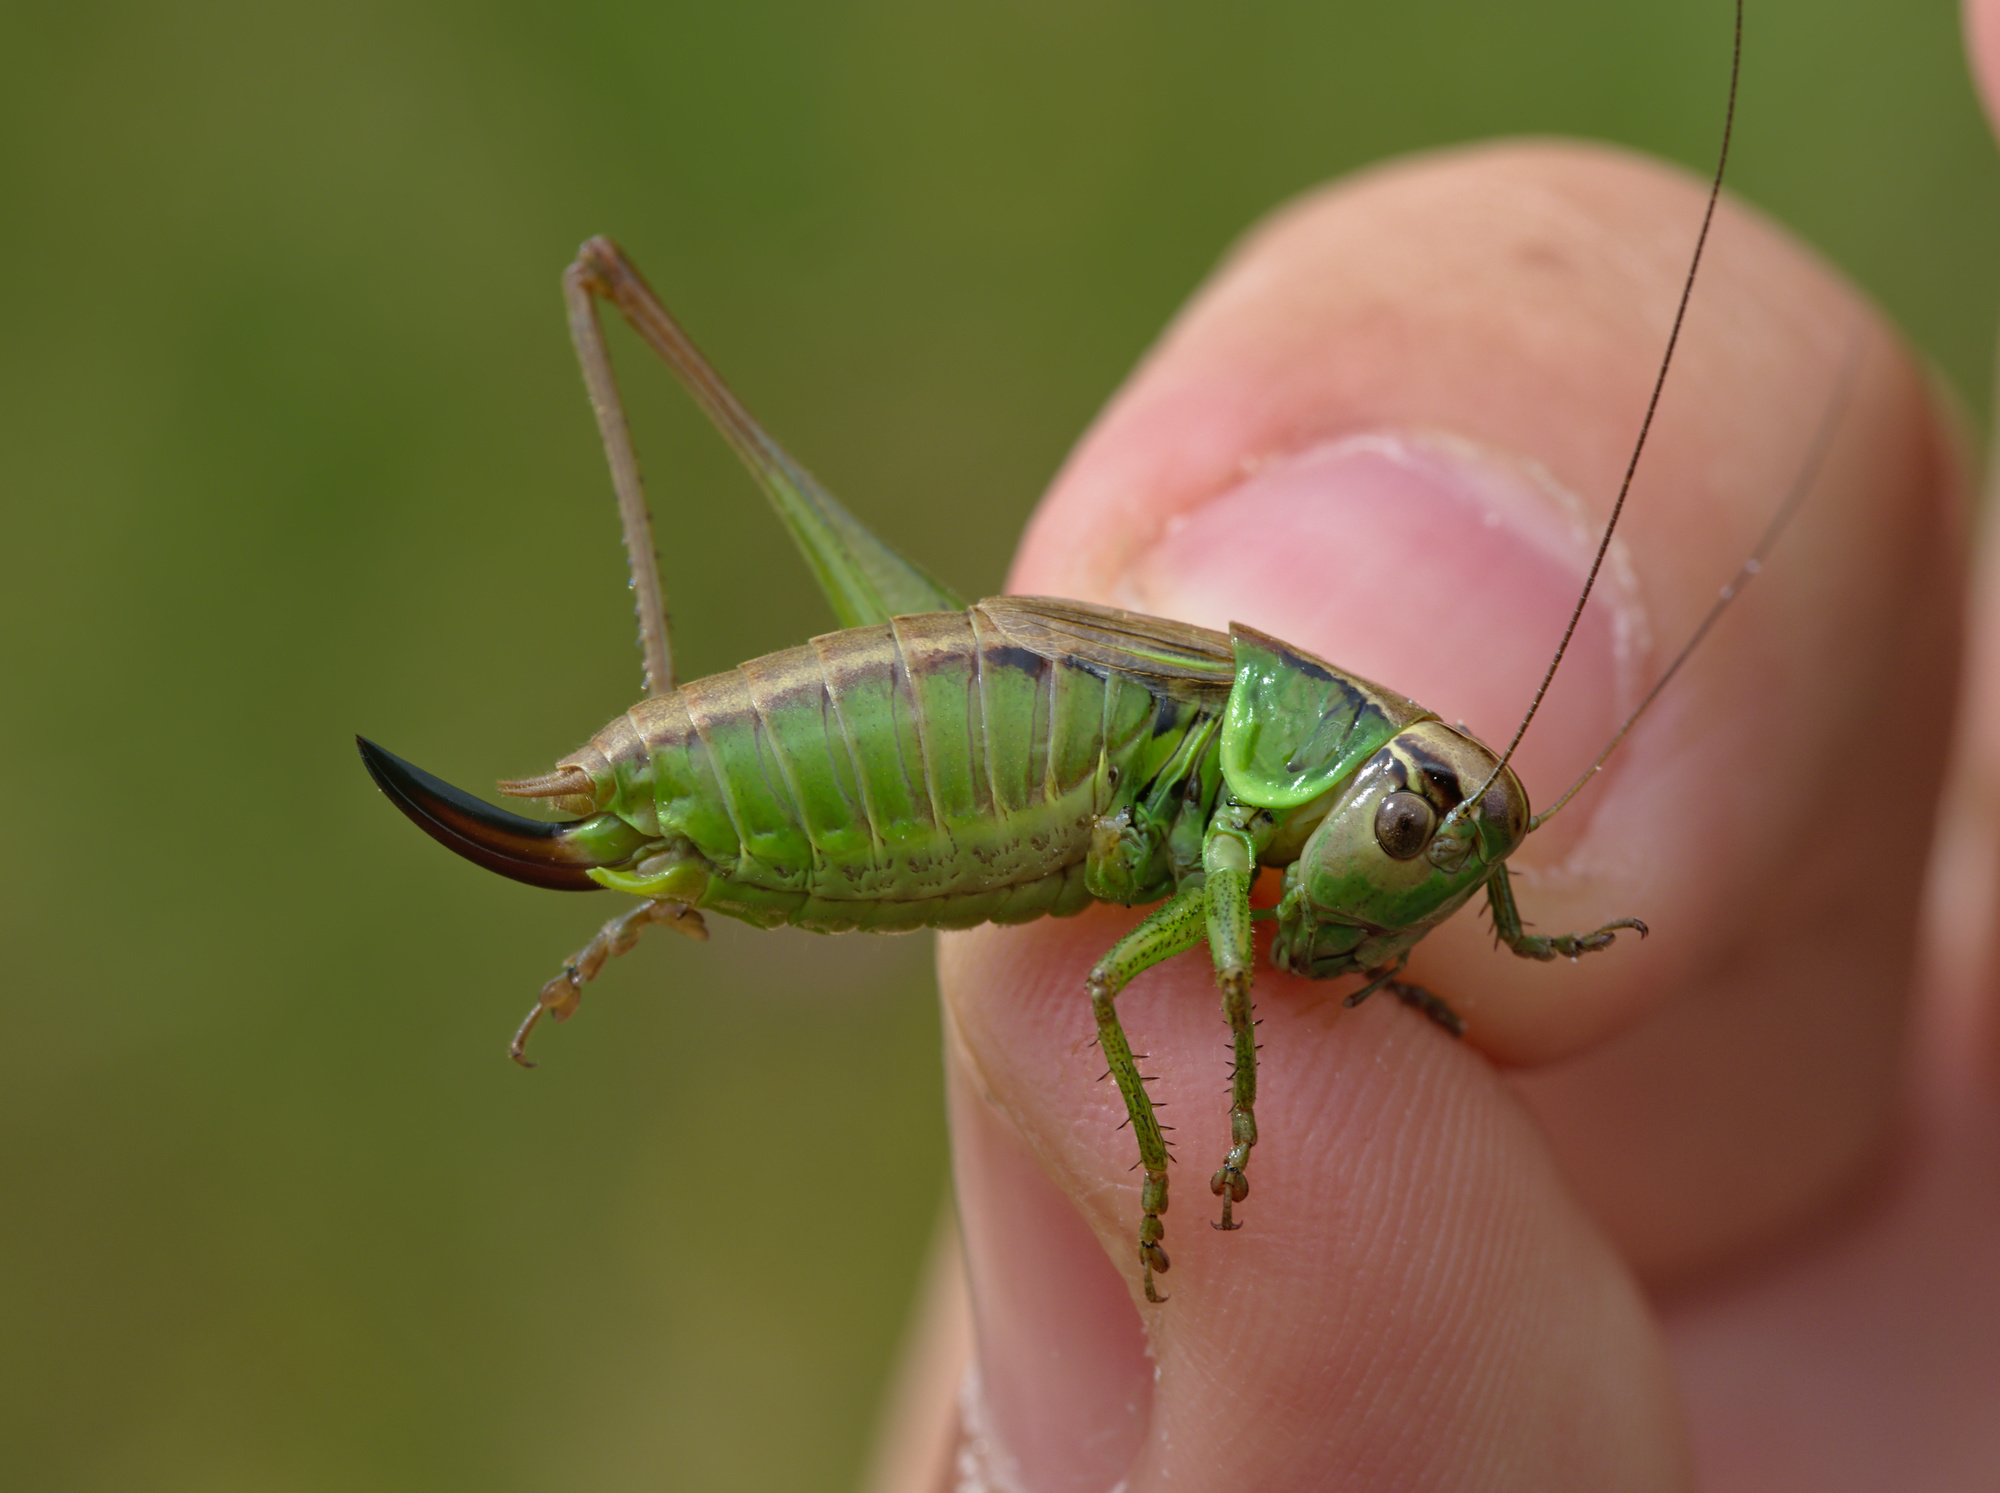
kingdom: Animalia
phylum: Arthropoda
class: Insecta
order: Orthoptera
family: Tettigoniidae
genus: Roeseliana
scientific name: Roeseliana roeselii
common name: Roesel's bush cricket
